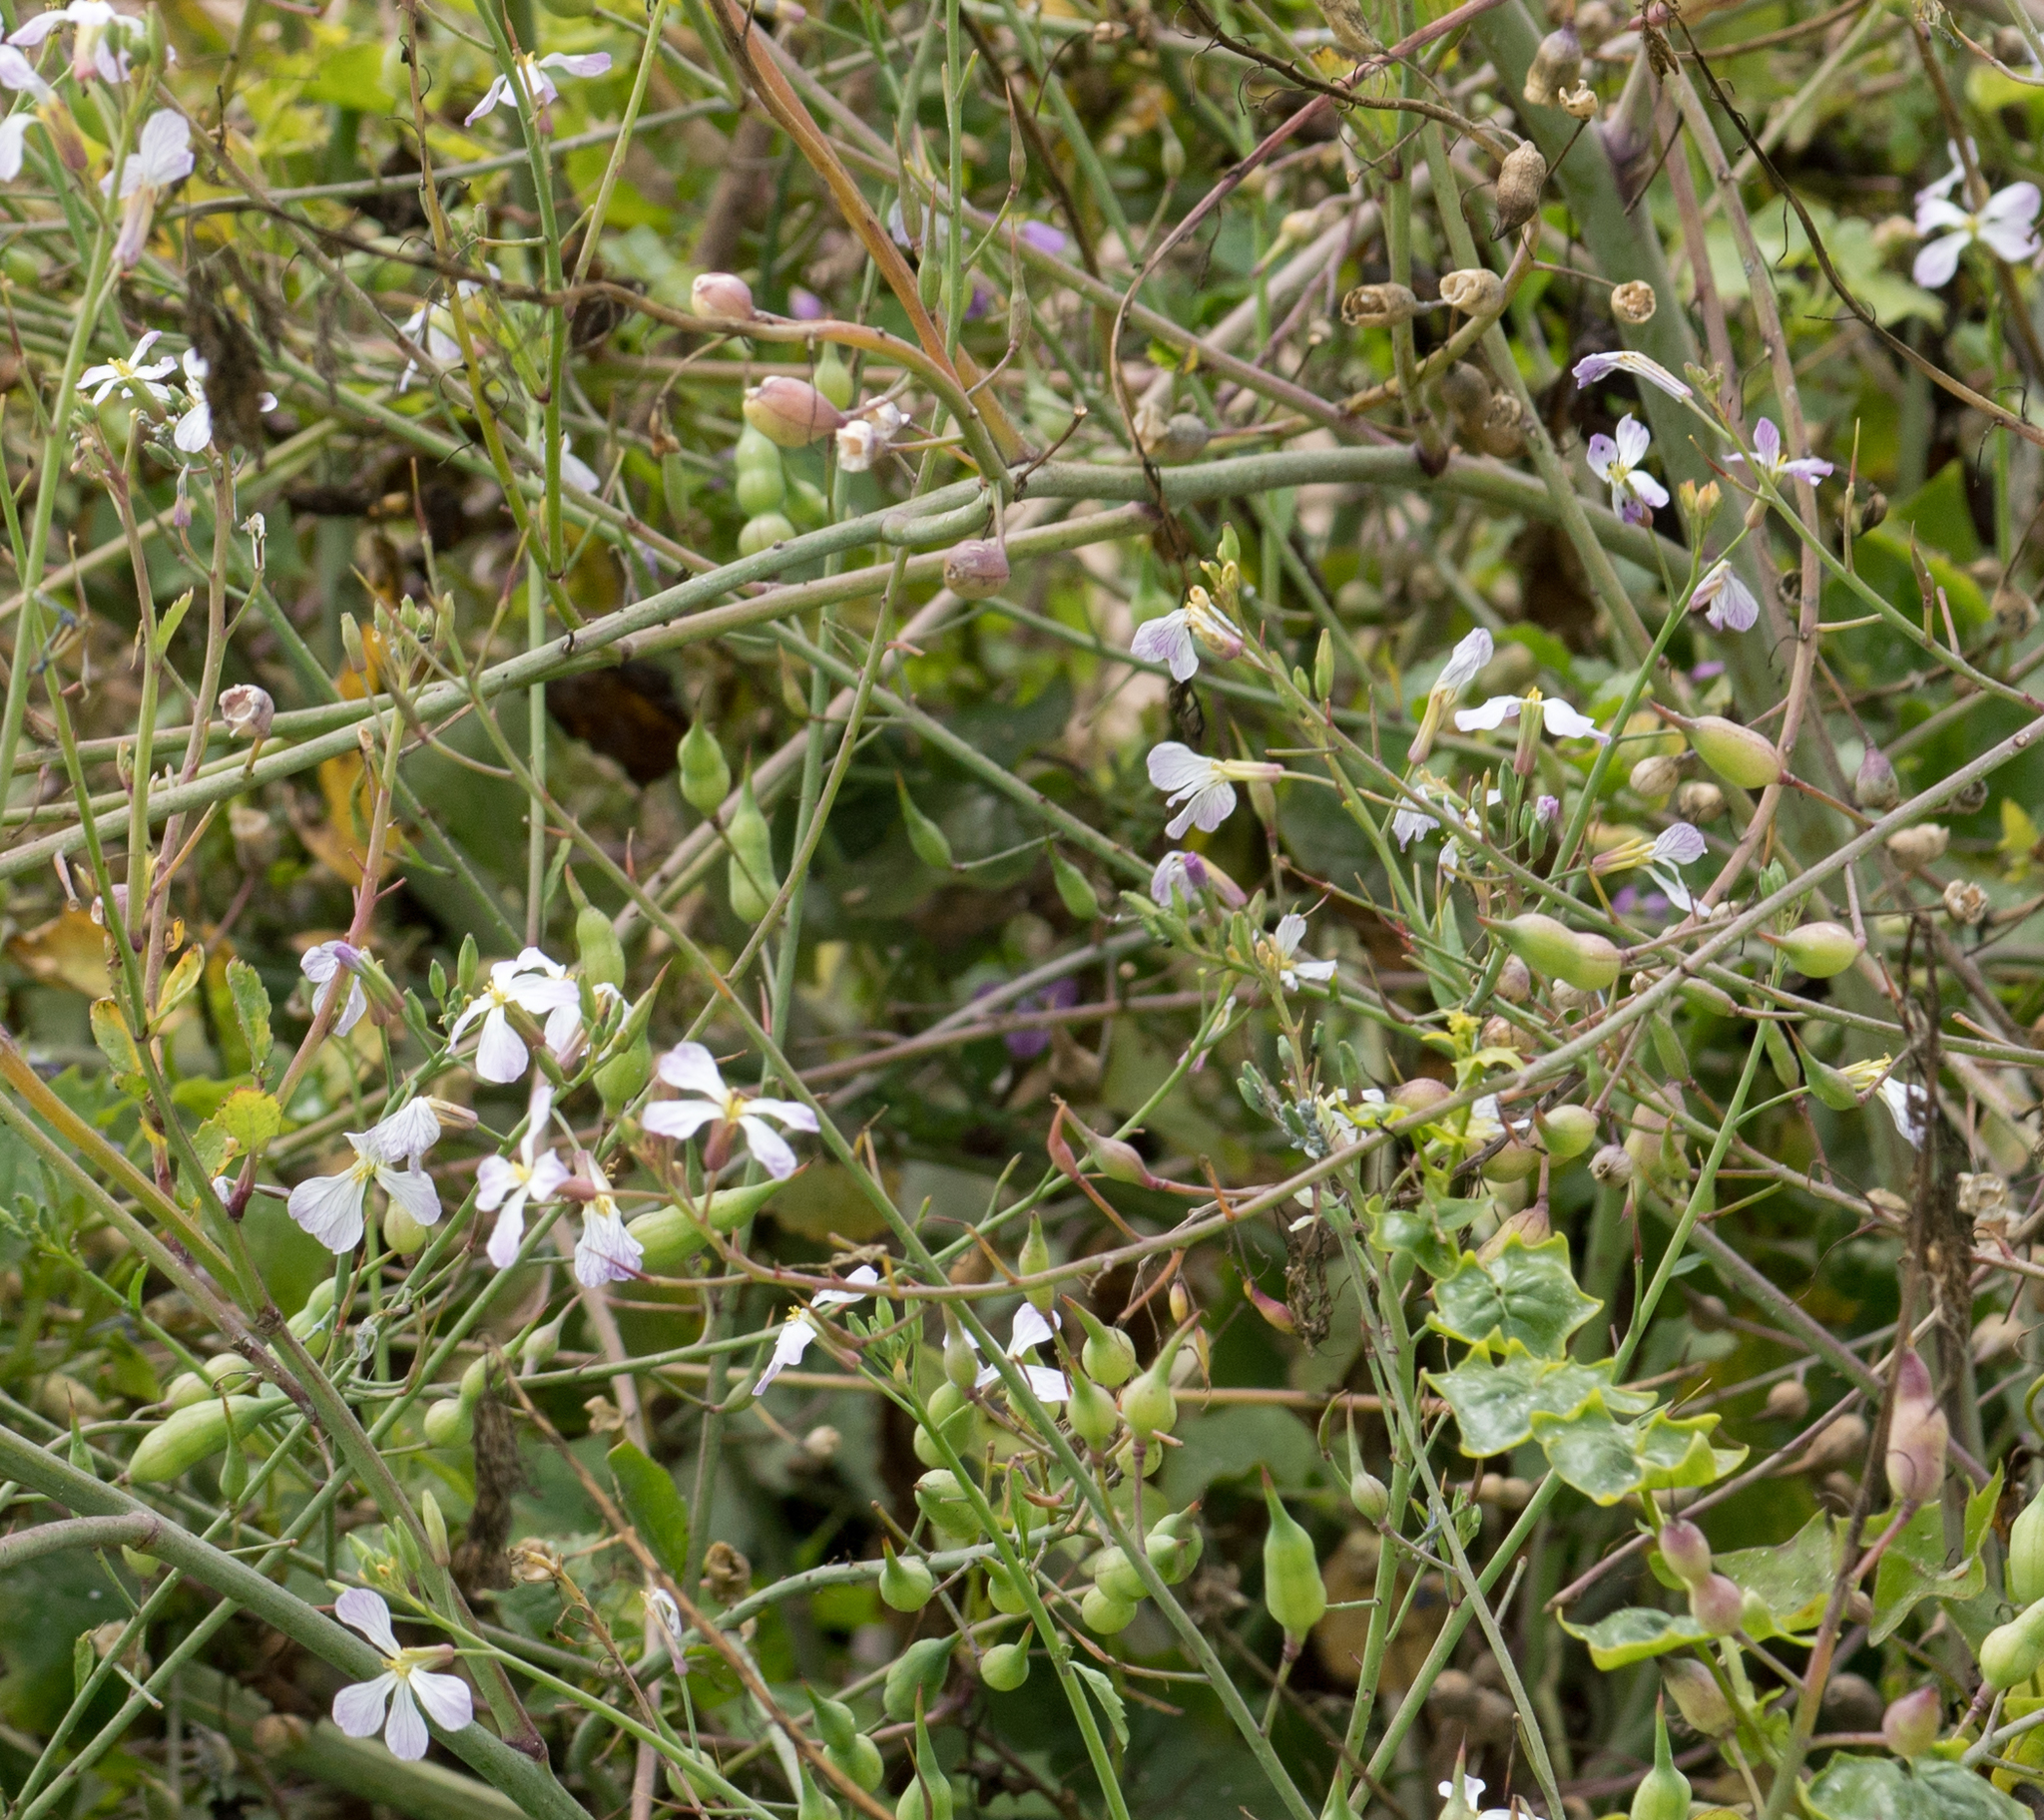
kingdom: Plantae
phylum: Tracheophyta
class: Magnoliopsida
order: Brassicales
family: Brassicaceae
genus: Raphanus
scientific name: Raphanus sativus
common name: Cultivated radish
